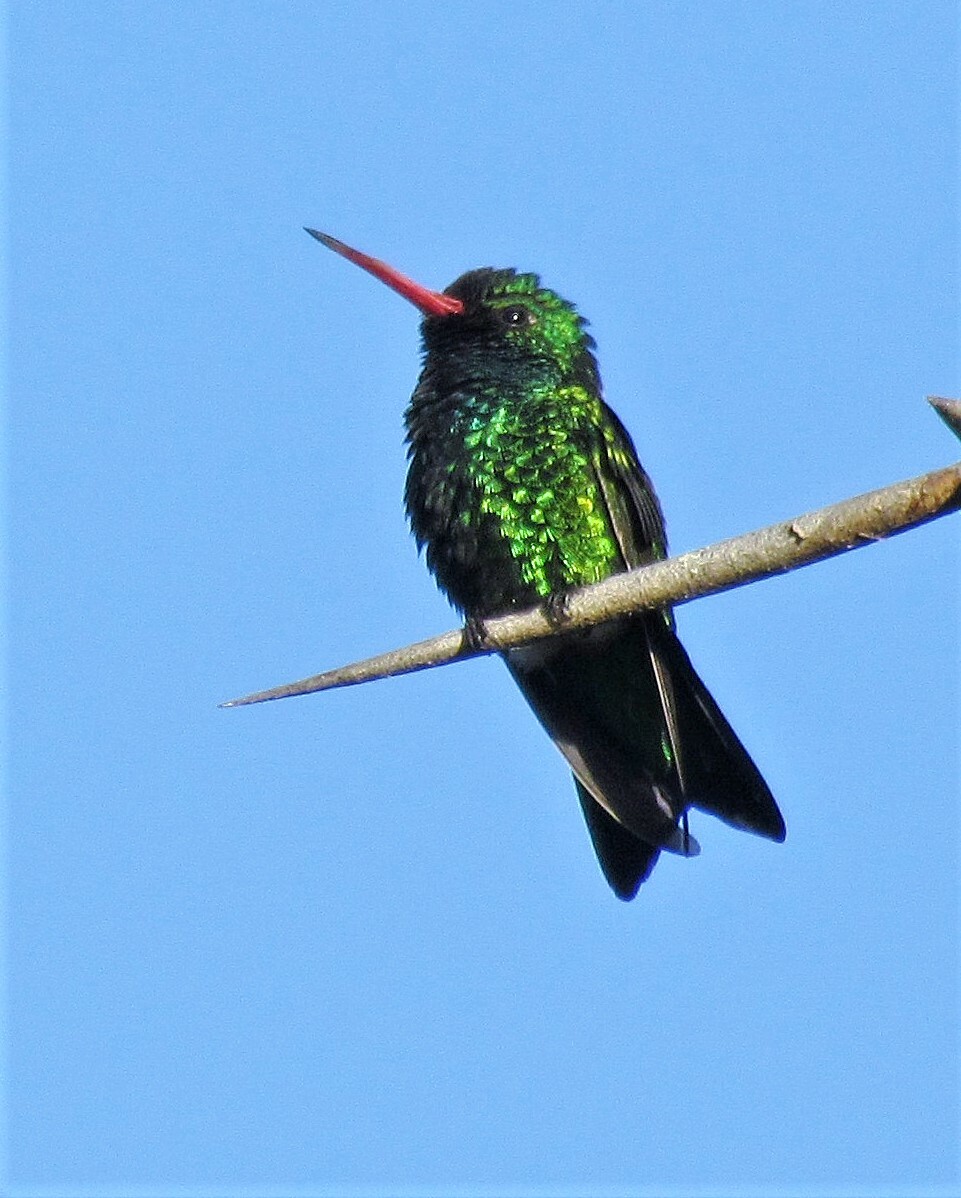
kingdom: Animalia
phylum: Chordata
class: Aves
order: Apodiformes
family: Trochilidae
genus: Chlorostilbon
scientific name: Chlorostilbon lucidus
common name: Glittering-bellied emerald
